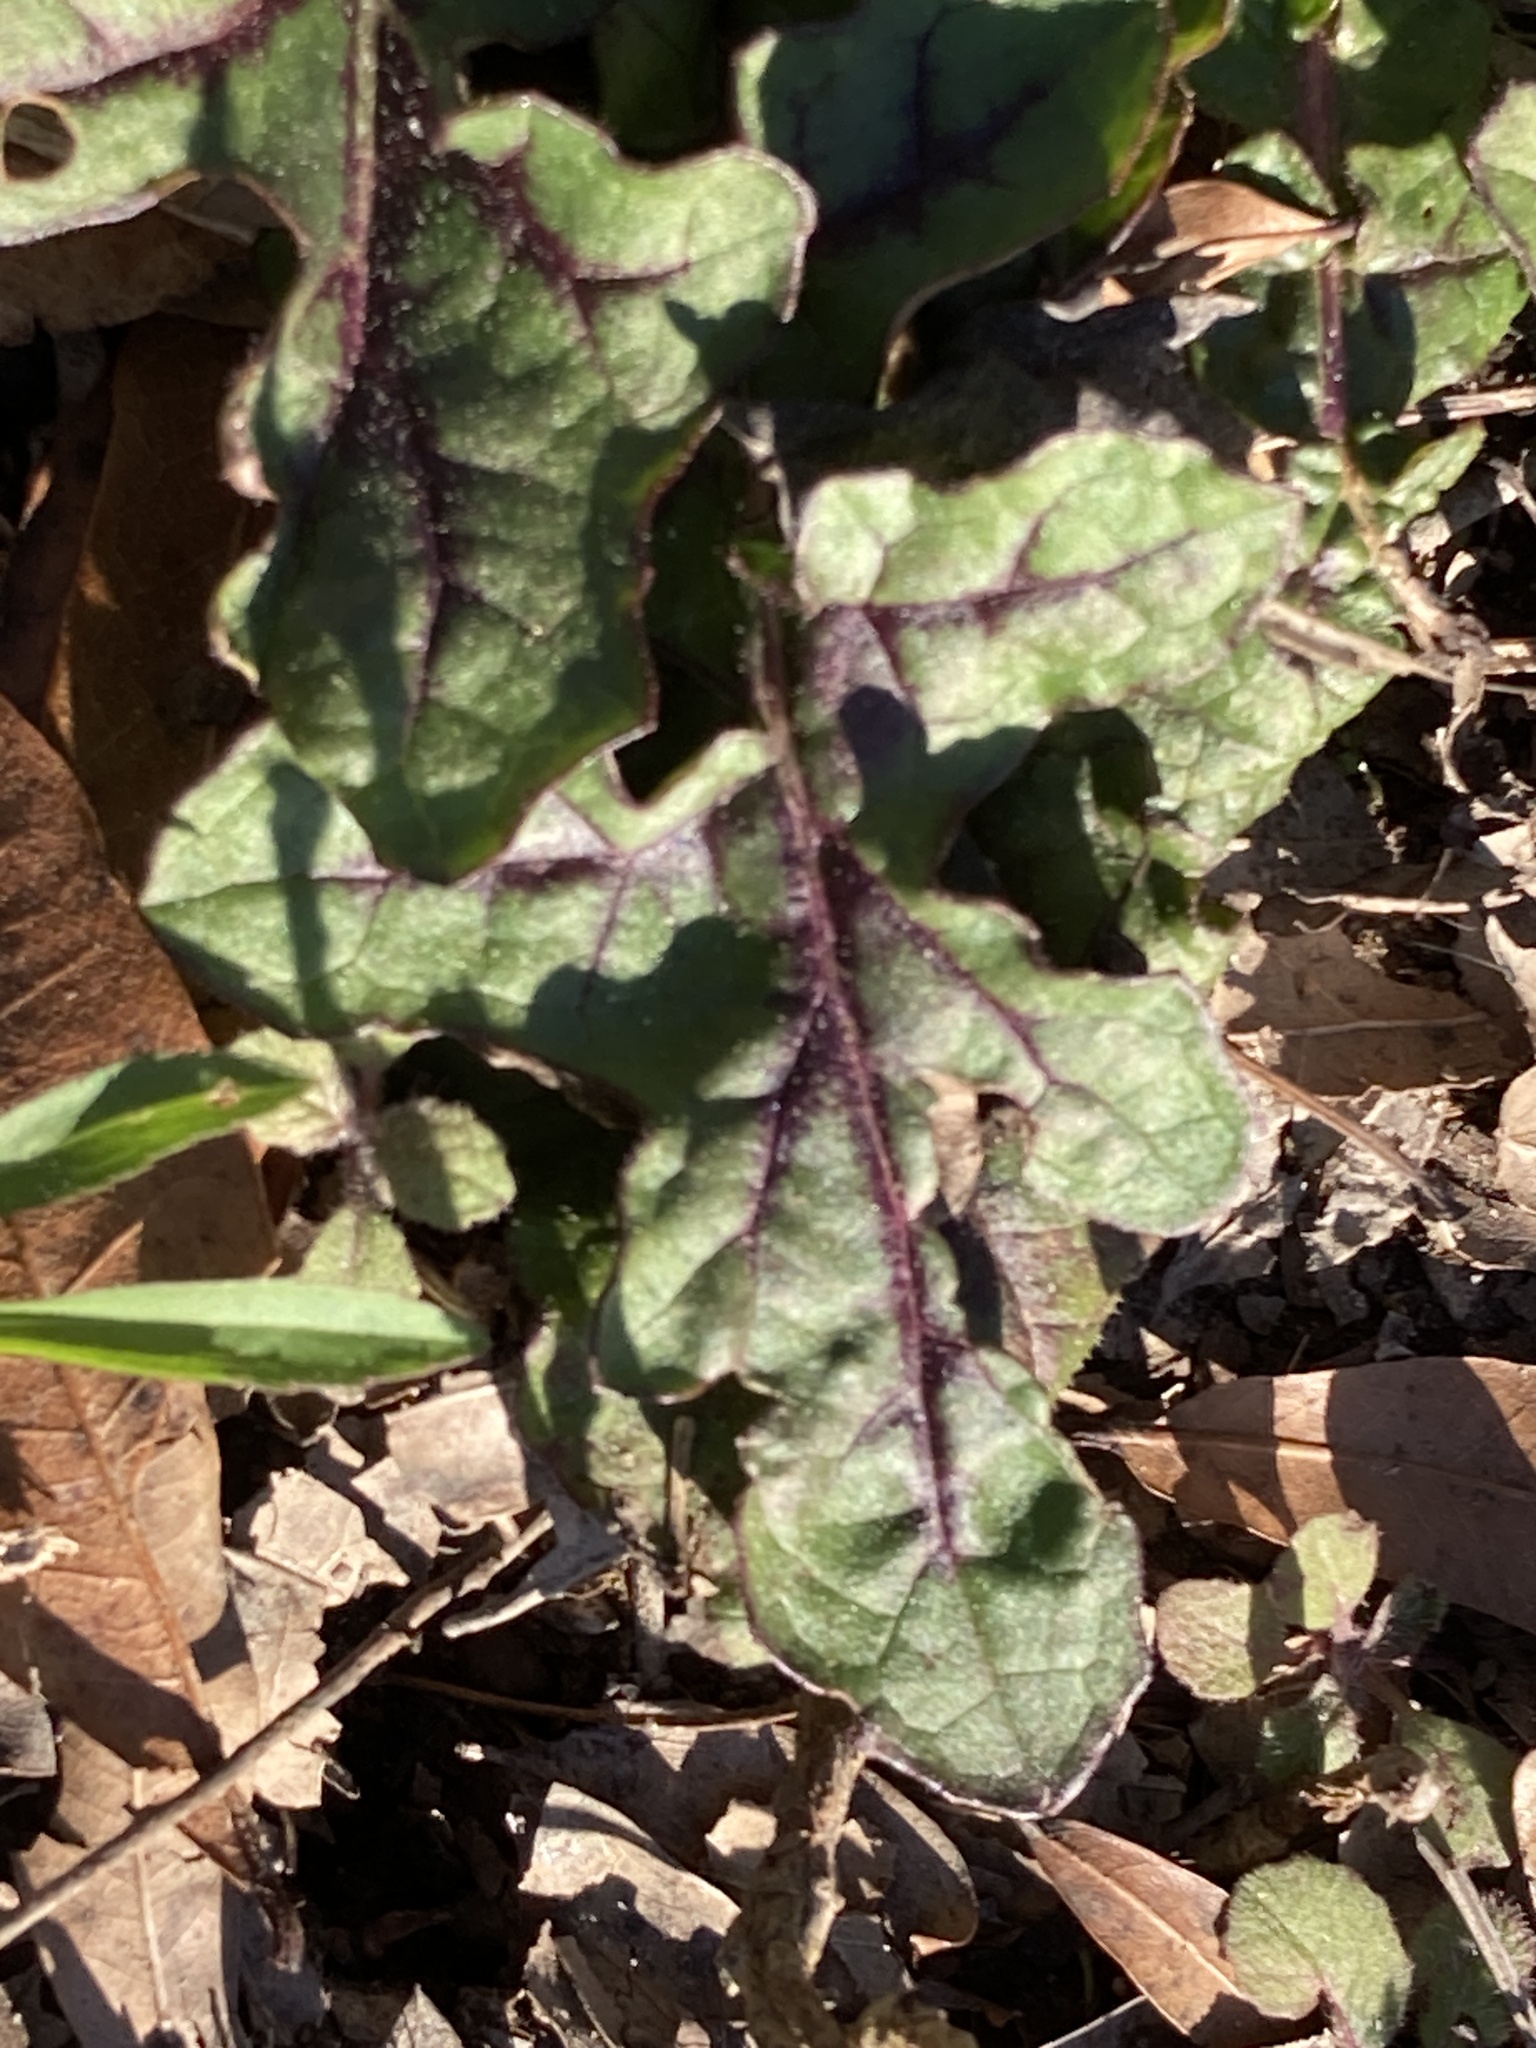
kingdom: Plantae
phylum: Tracheophyta
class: Magnoliopsida
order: Lamiales
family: Lamiaceae
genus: Salvia
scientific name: Salvia lyrata
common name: Cancerweed
